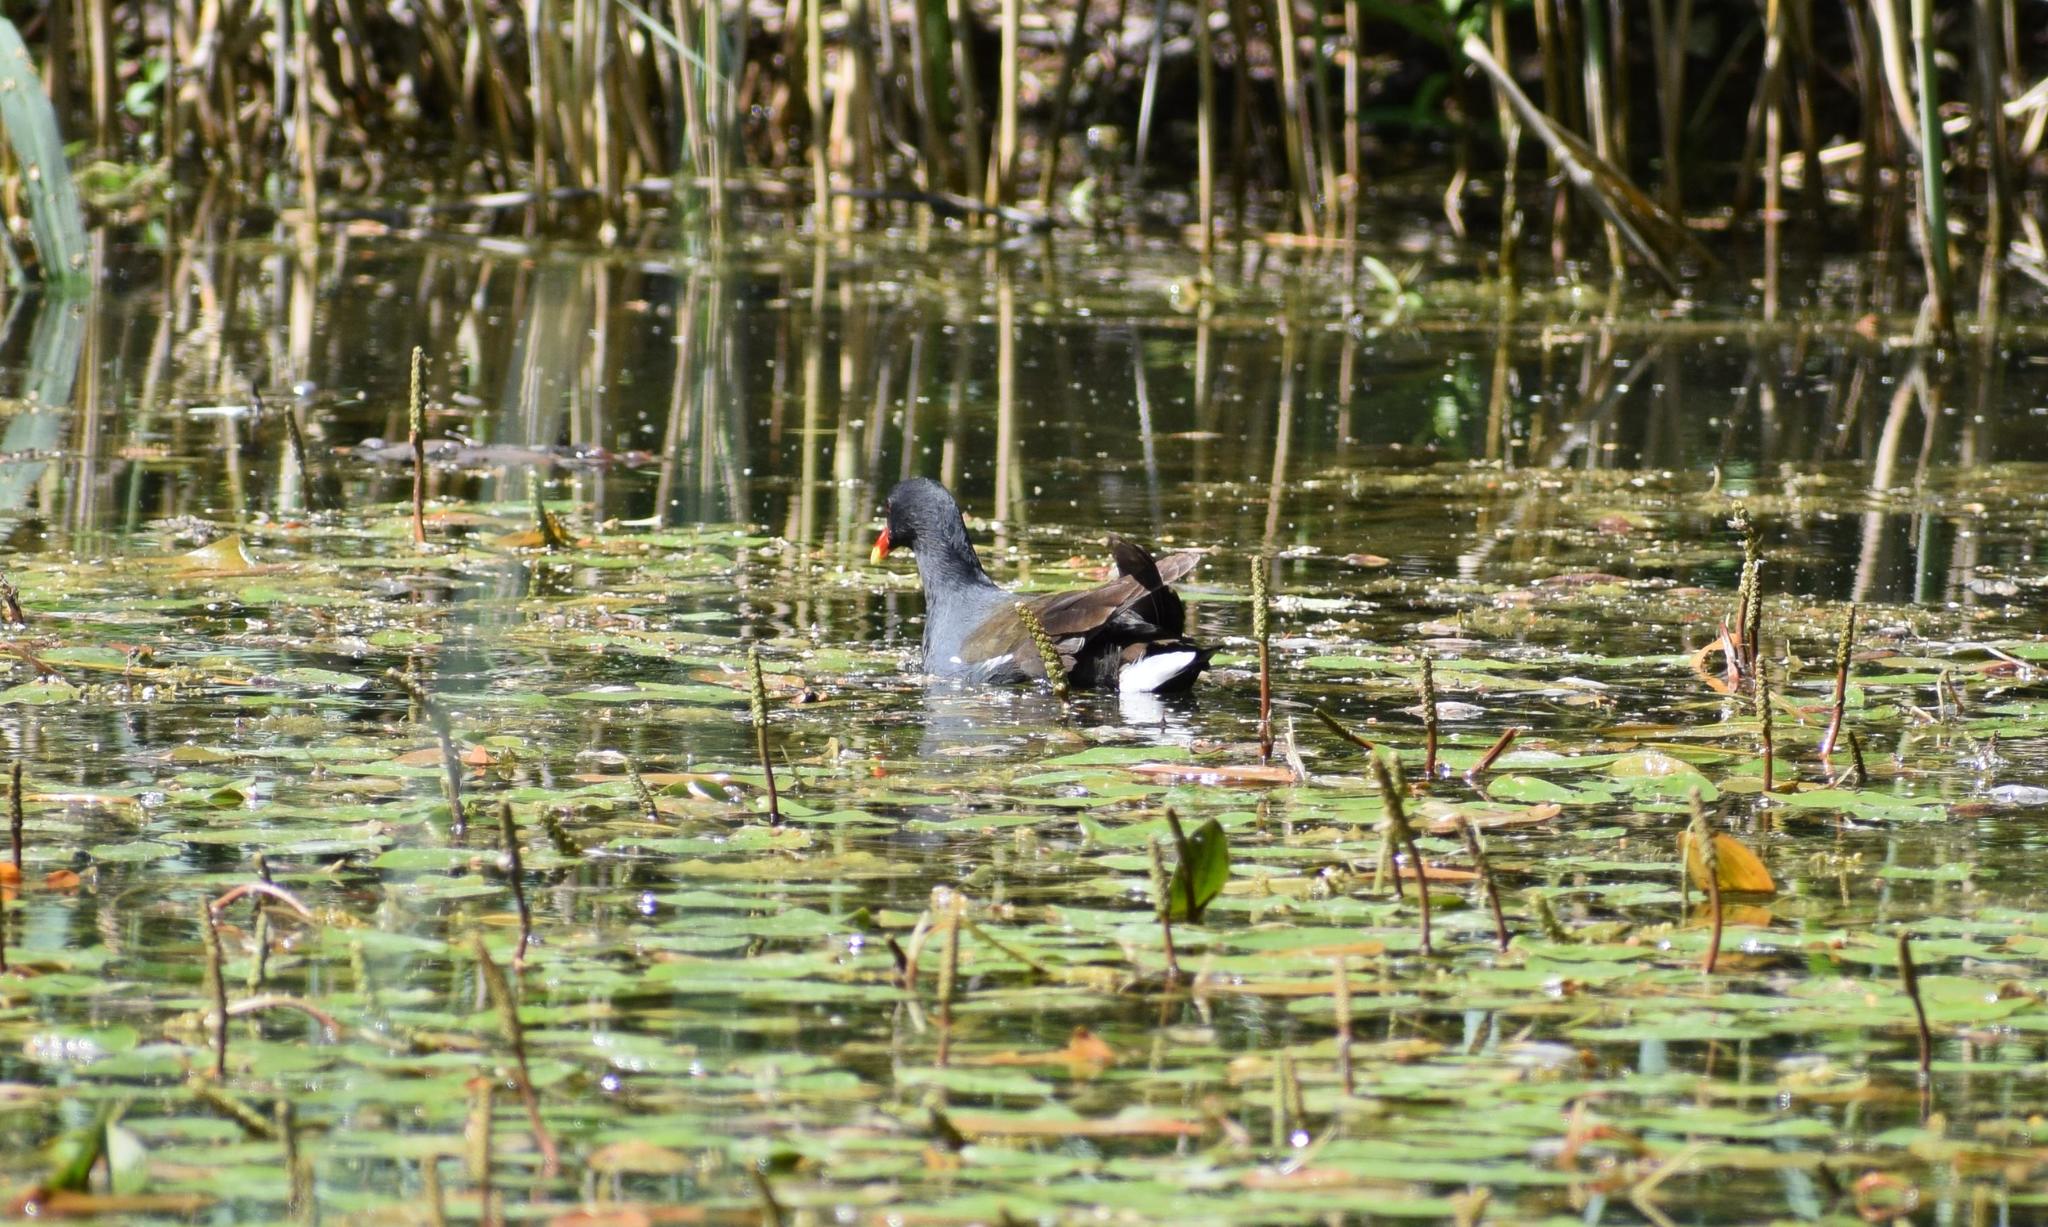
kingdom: Animalia
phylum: Chordata
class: Aves
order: Gruiformes
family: Rallidae
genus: Gallinula
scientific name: Gallinula chloropus
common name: Common moorhen
